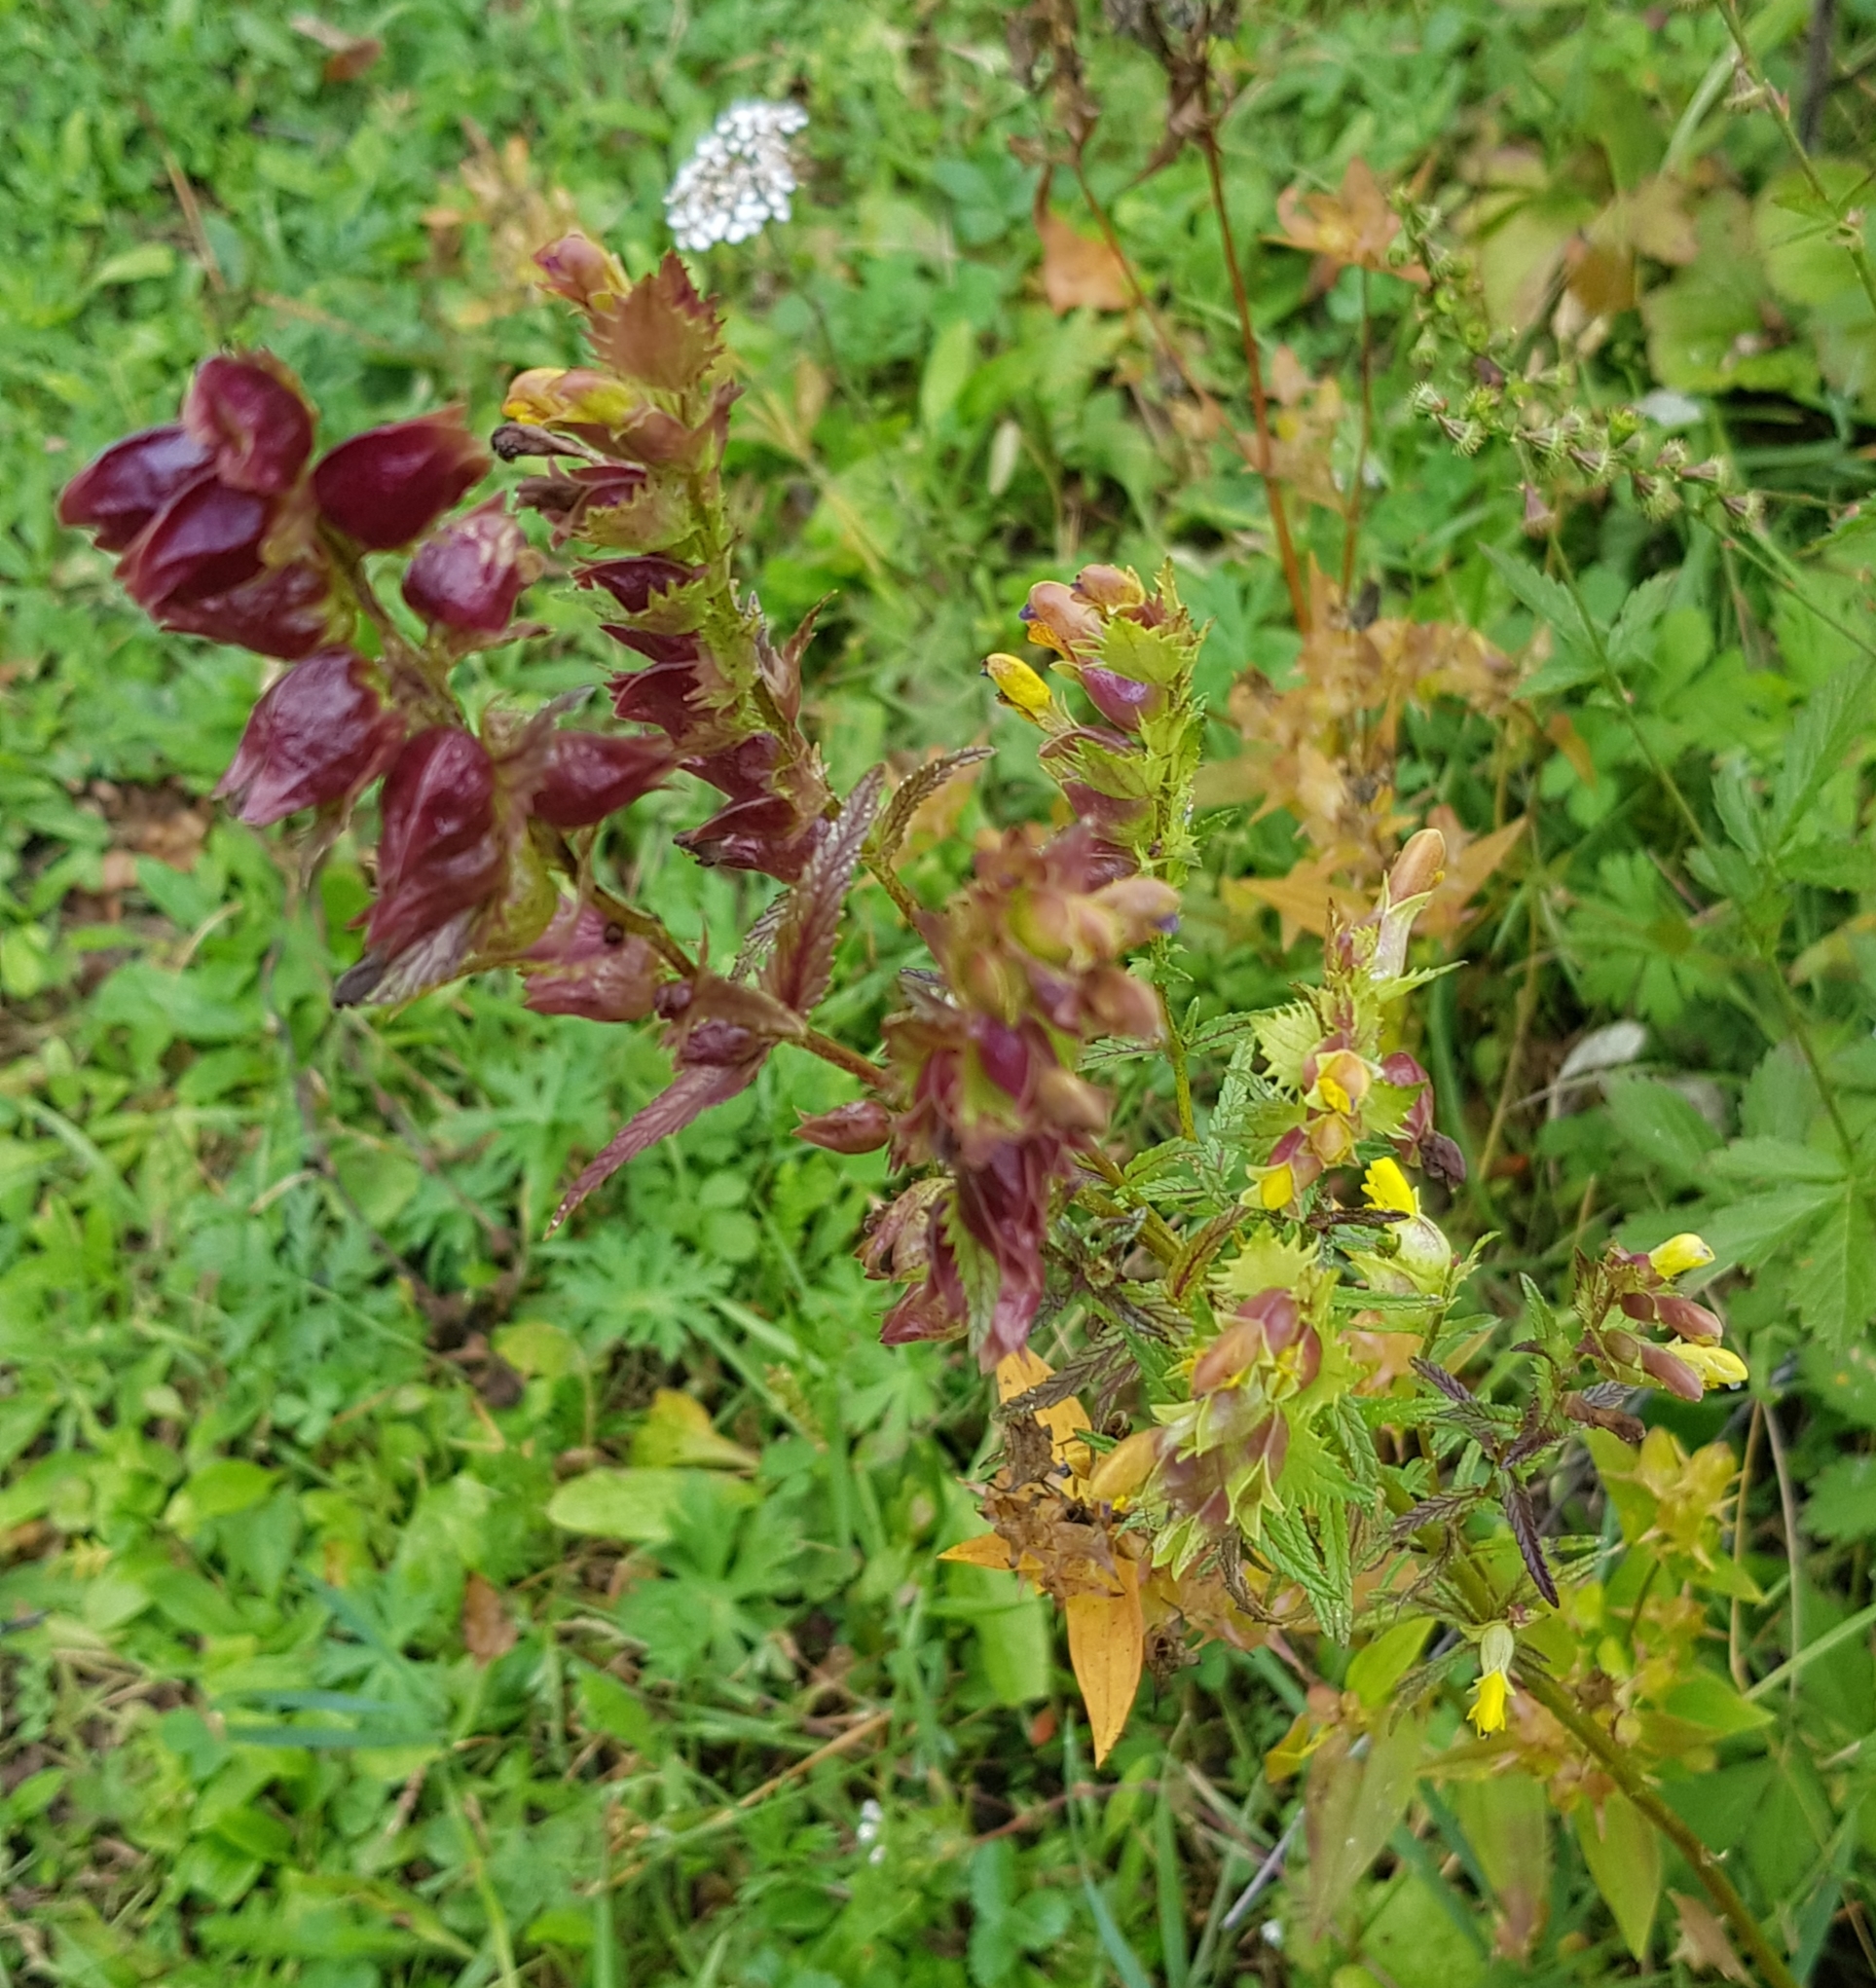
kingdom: Plantae
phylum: Tracheophyta
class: Magnoliopsida
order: Lamiales
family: Orobanchaceae
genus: Rhinanthus
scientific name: Rhinanthus serotinus
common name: Late-flowering yellow rattle
